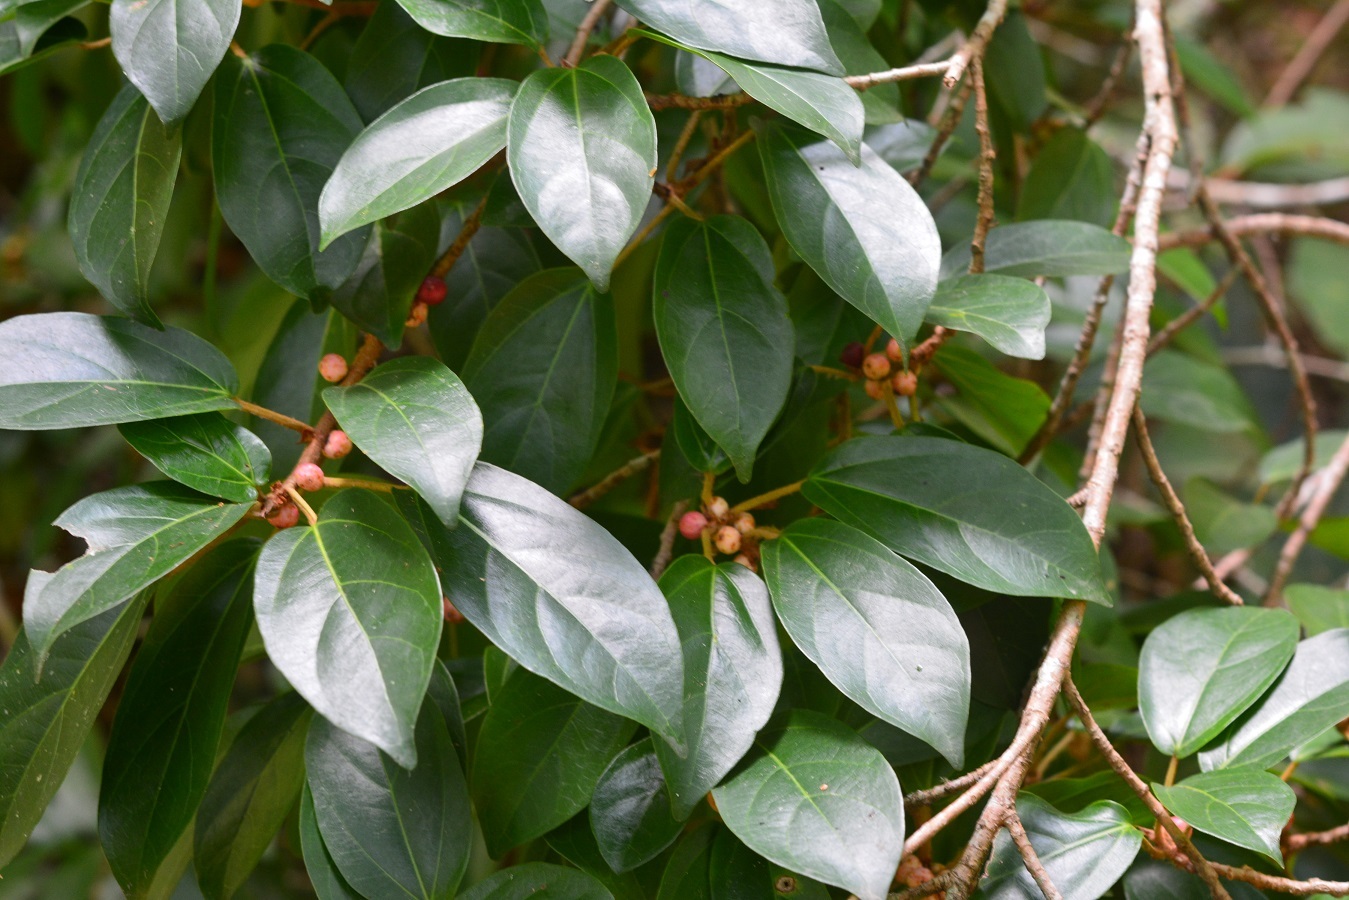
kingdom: Plantae
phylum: Tracheophyta
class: Magnoliopsida
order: Rosales
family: Moraceae
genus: Ficus
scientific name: Ficus colubrinae
